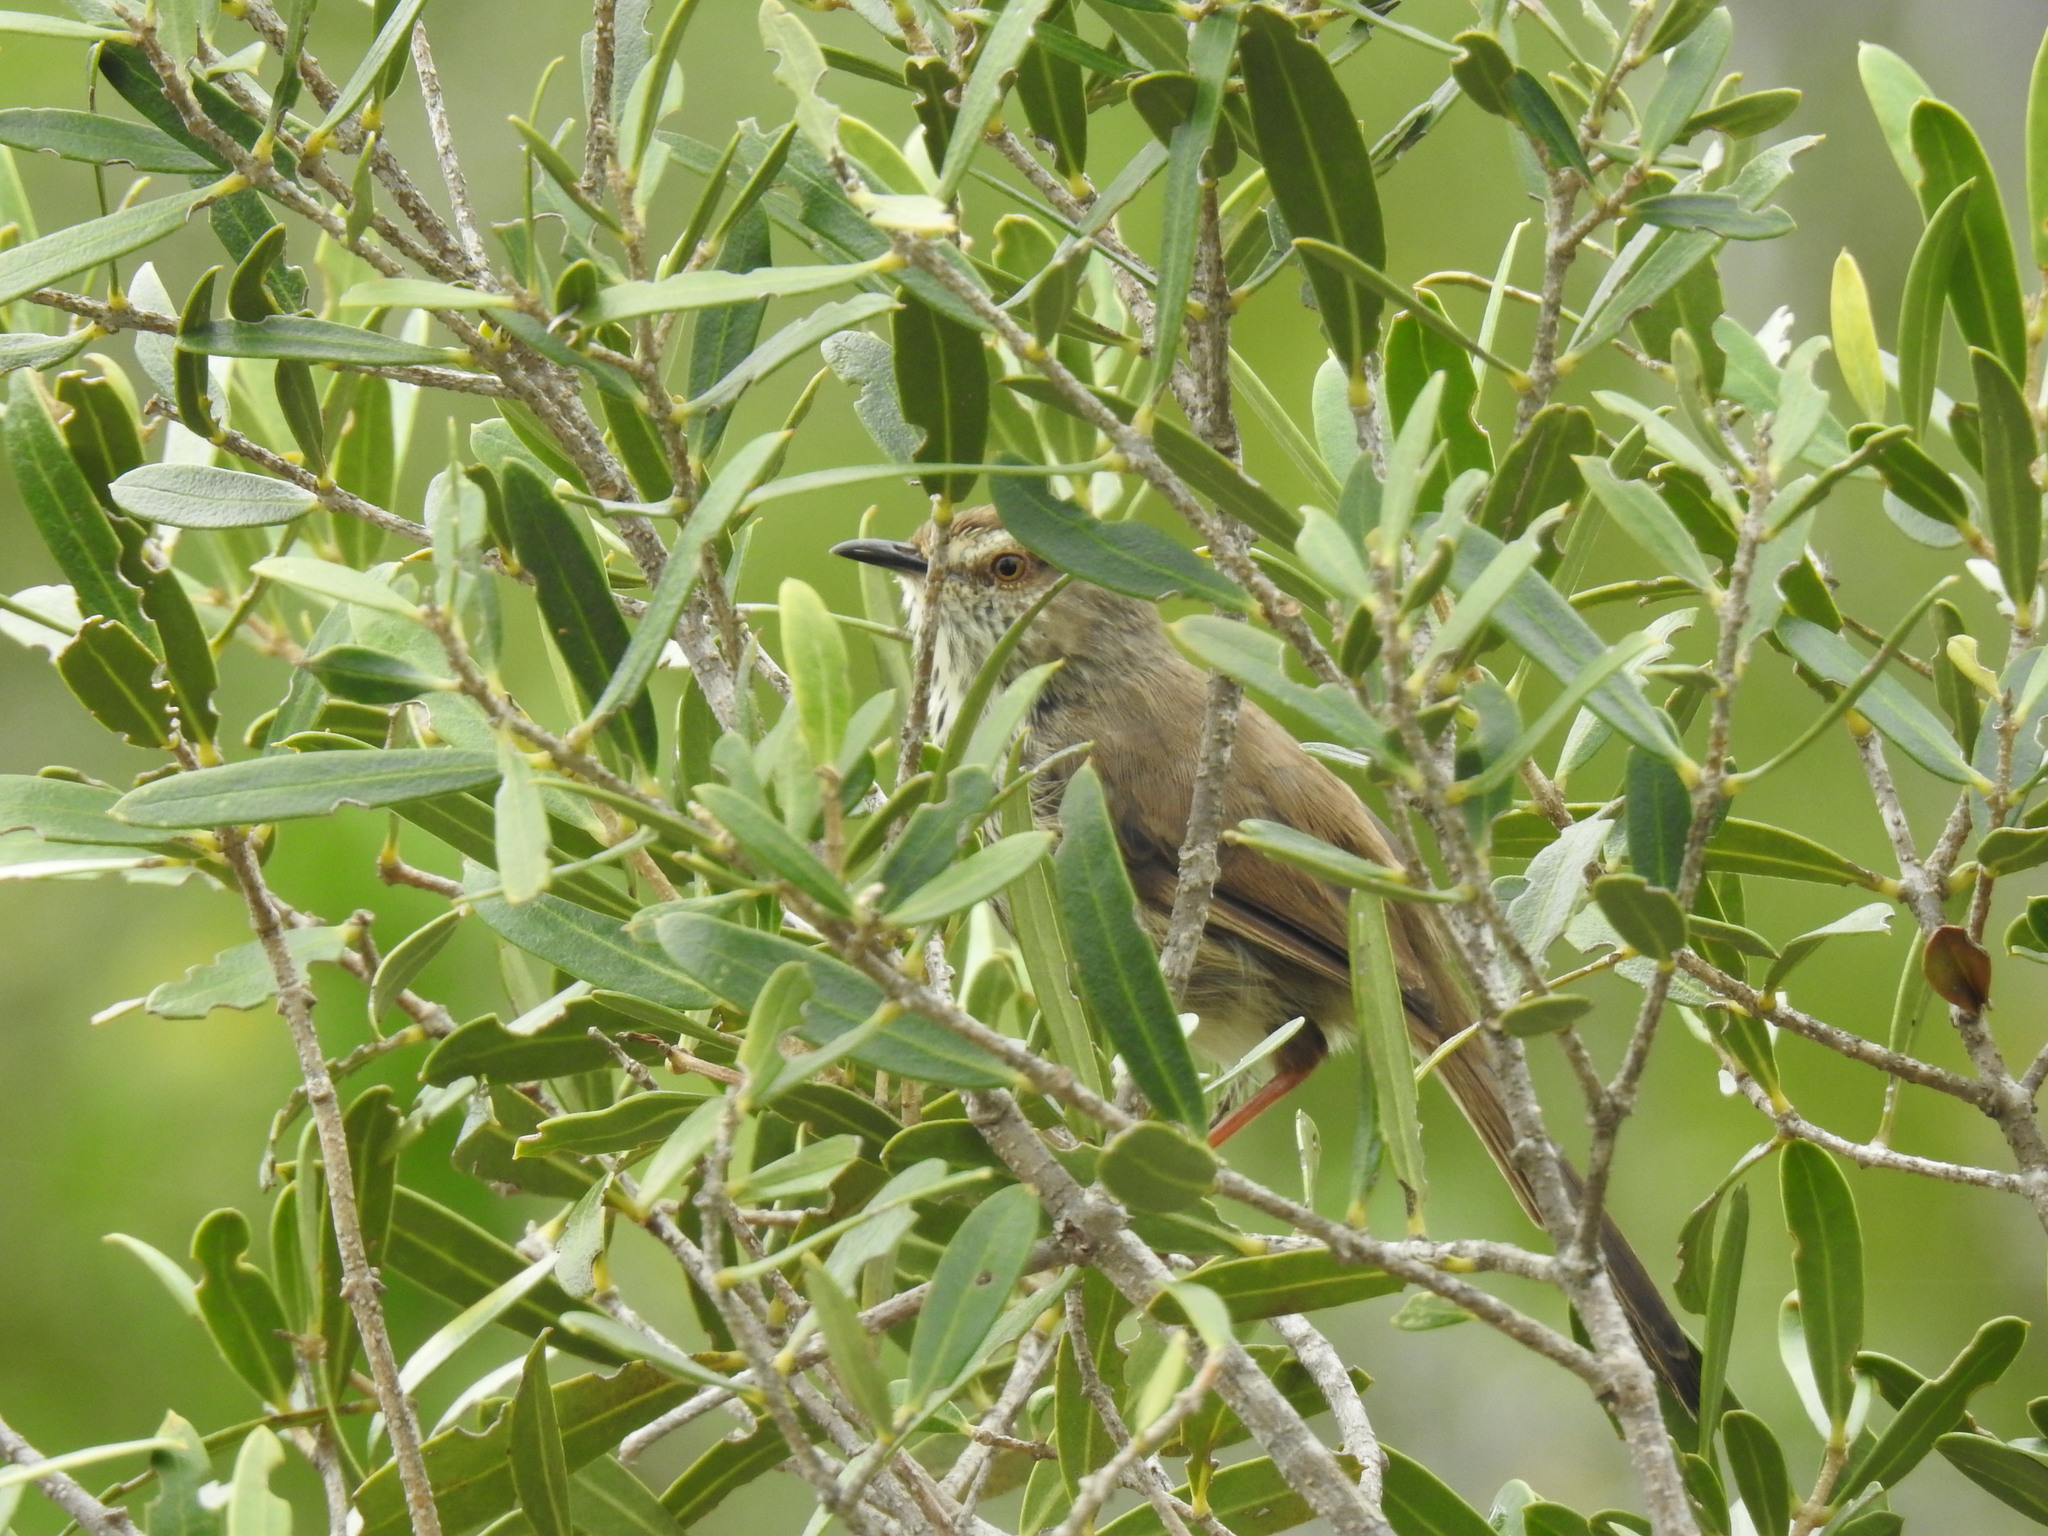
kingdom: Animalia
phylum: Chordata
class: Aves
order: Passeriformes
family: Cisticolidae
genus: Prinia
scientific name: Prinia maculosa
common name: Karoo prinia
